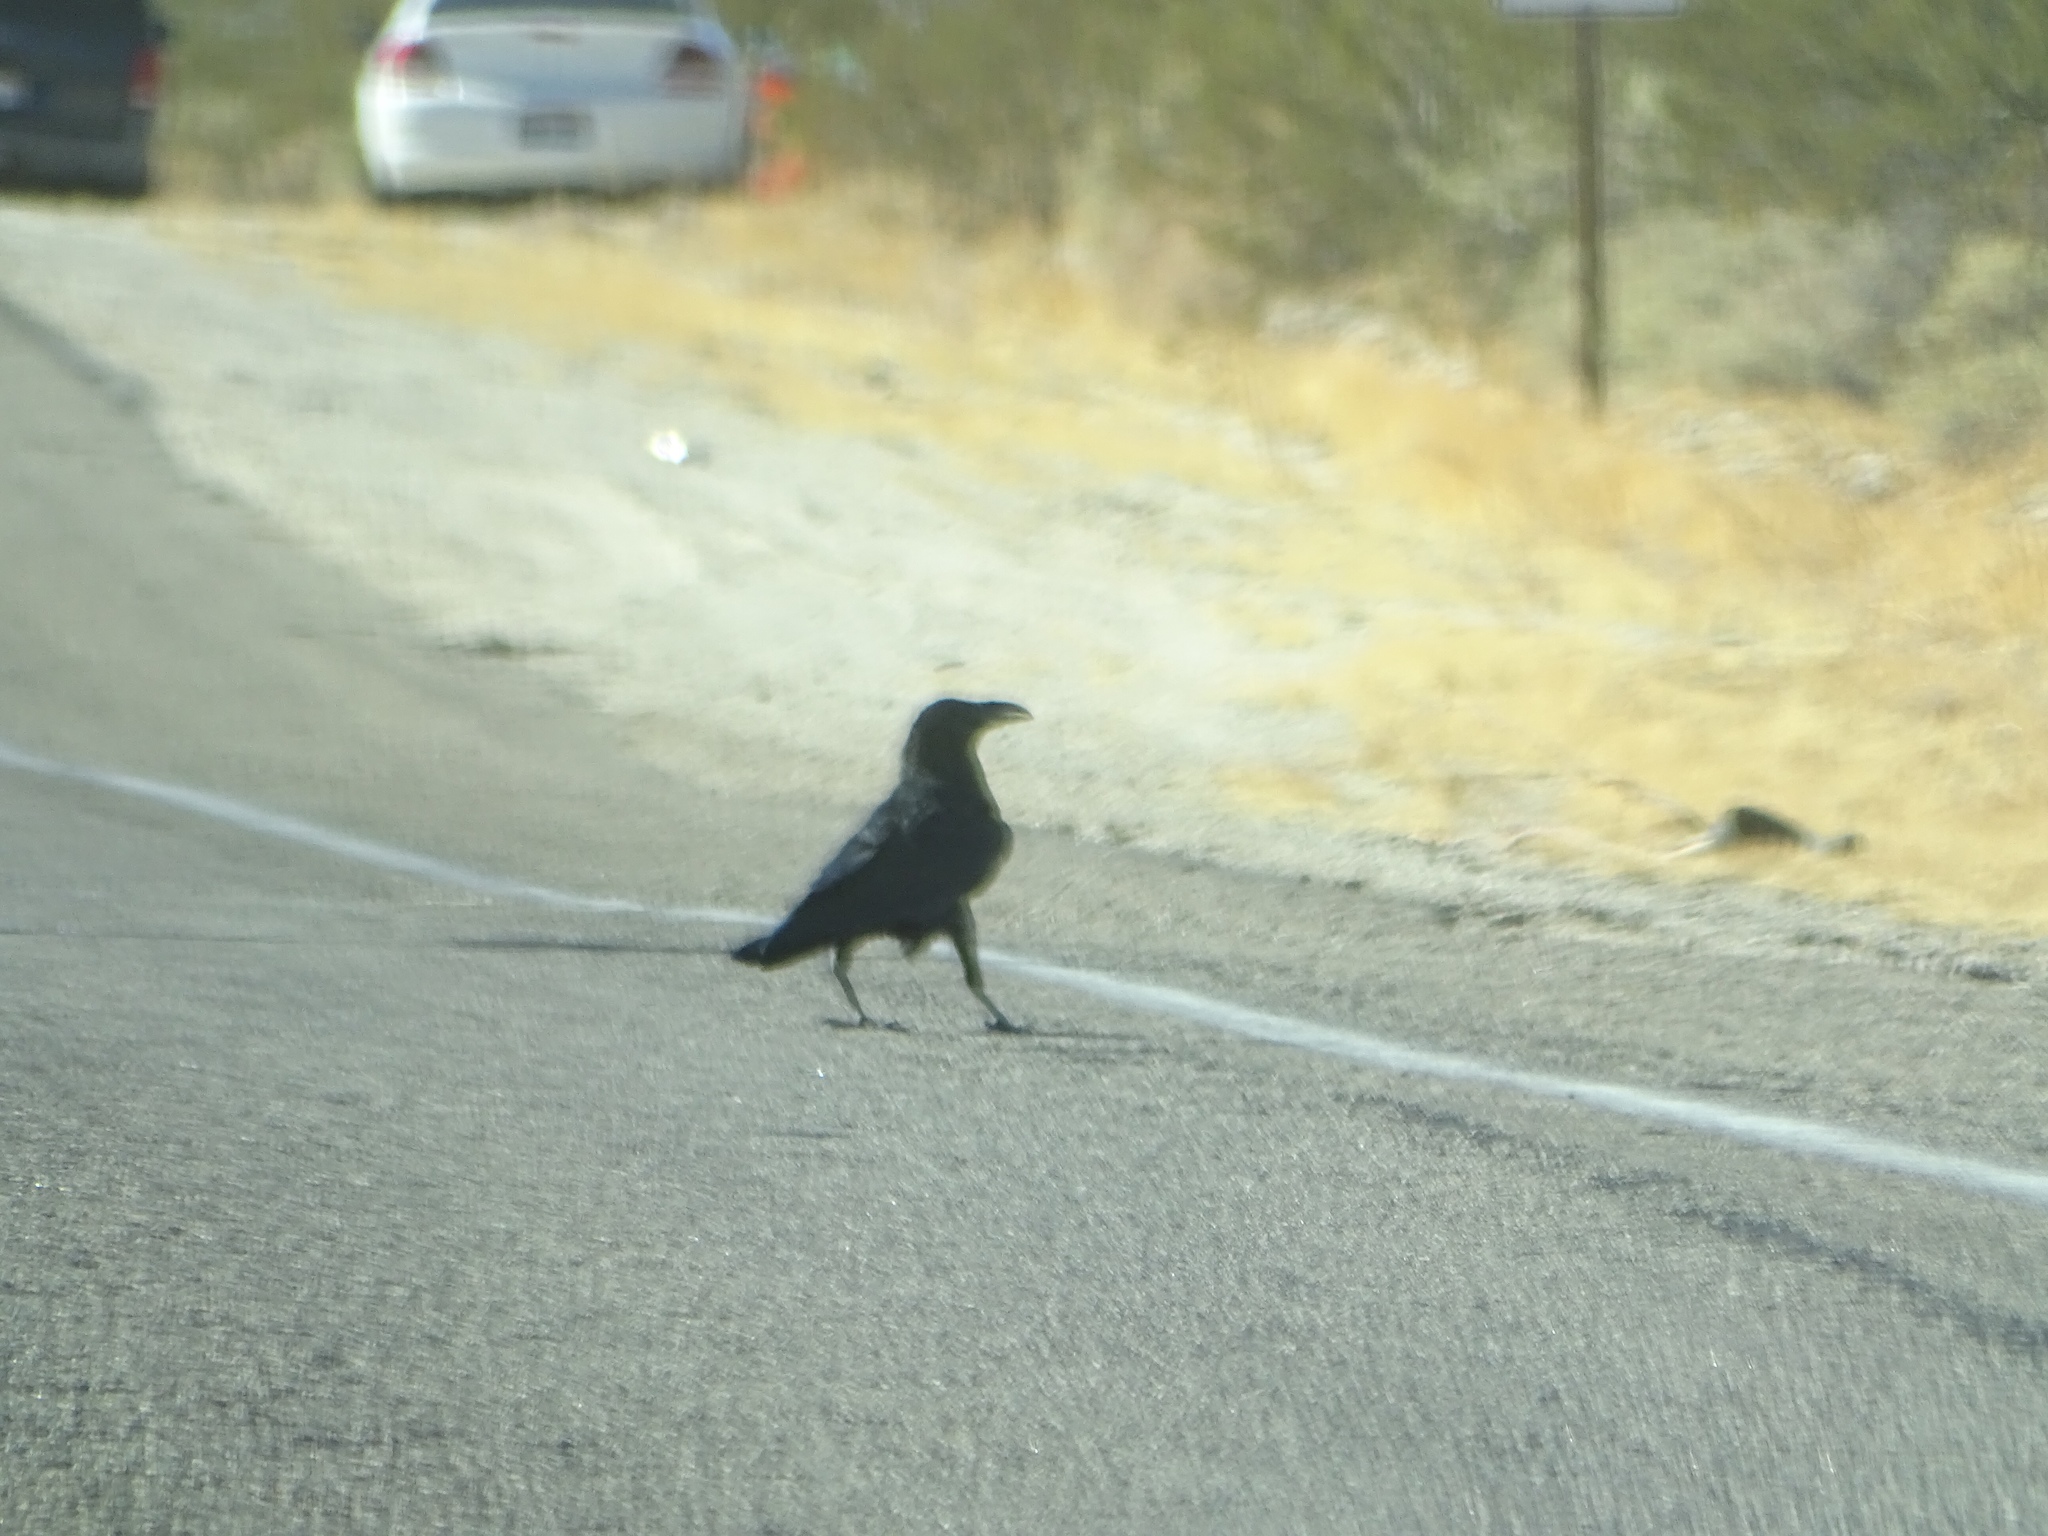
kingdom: Animalia
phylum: Chordata
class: Aves
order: Passeriformes
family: Corvidae
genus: Corvus
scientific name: Corvus corax
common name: Common raven
